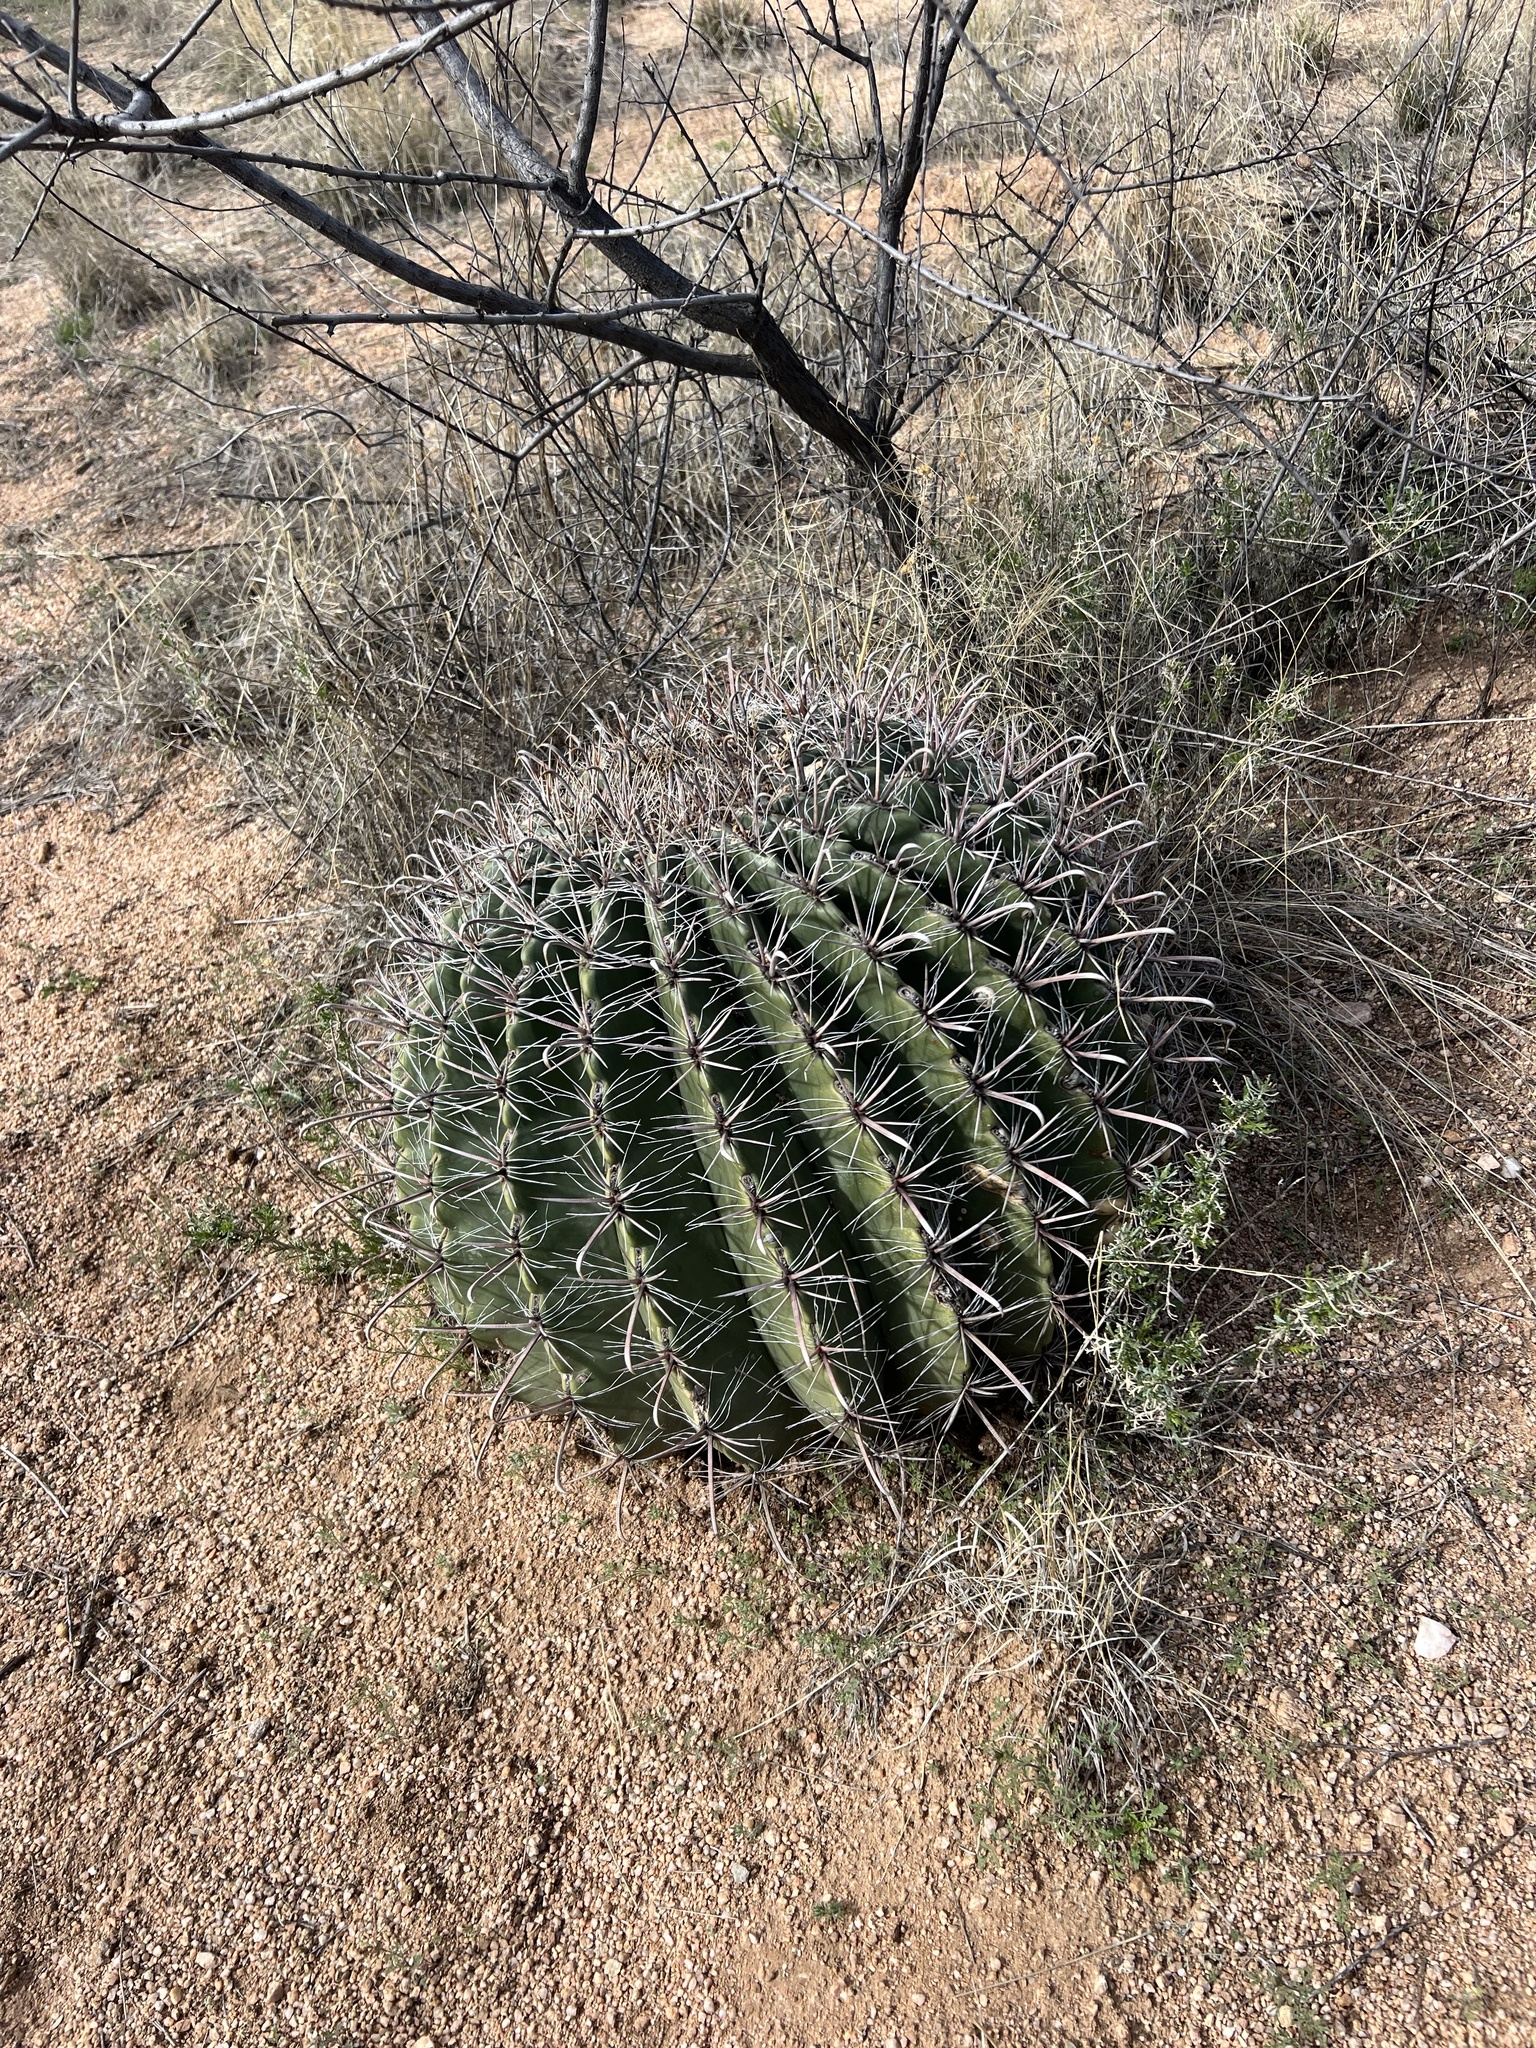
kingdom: Plantae
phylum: Tracheophyta
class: Magnoliopsida
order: Caryophyllales
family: Cactaceae
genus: Ferocactus
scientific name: Ferocactus wislizeni
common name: Candy barrel cactus
